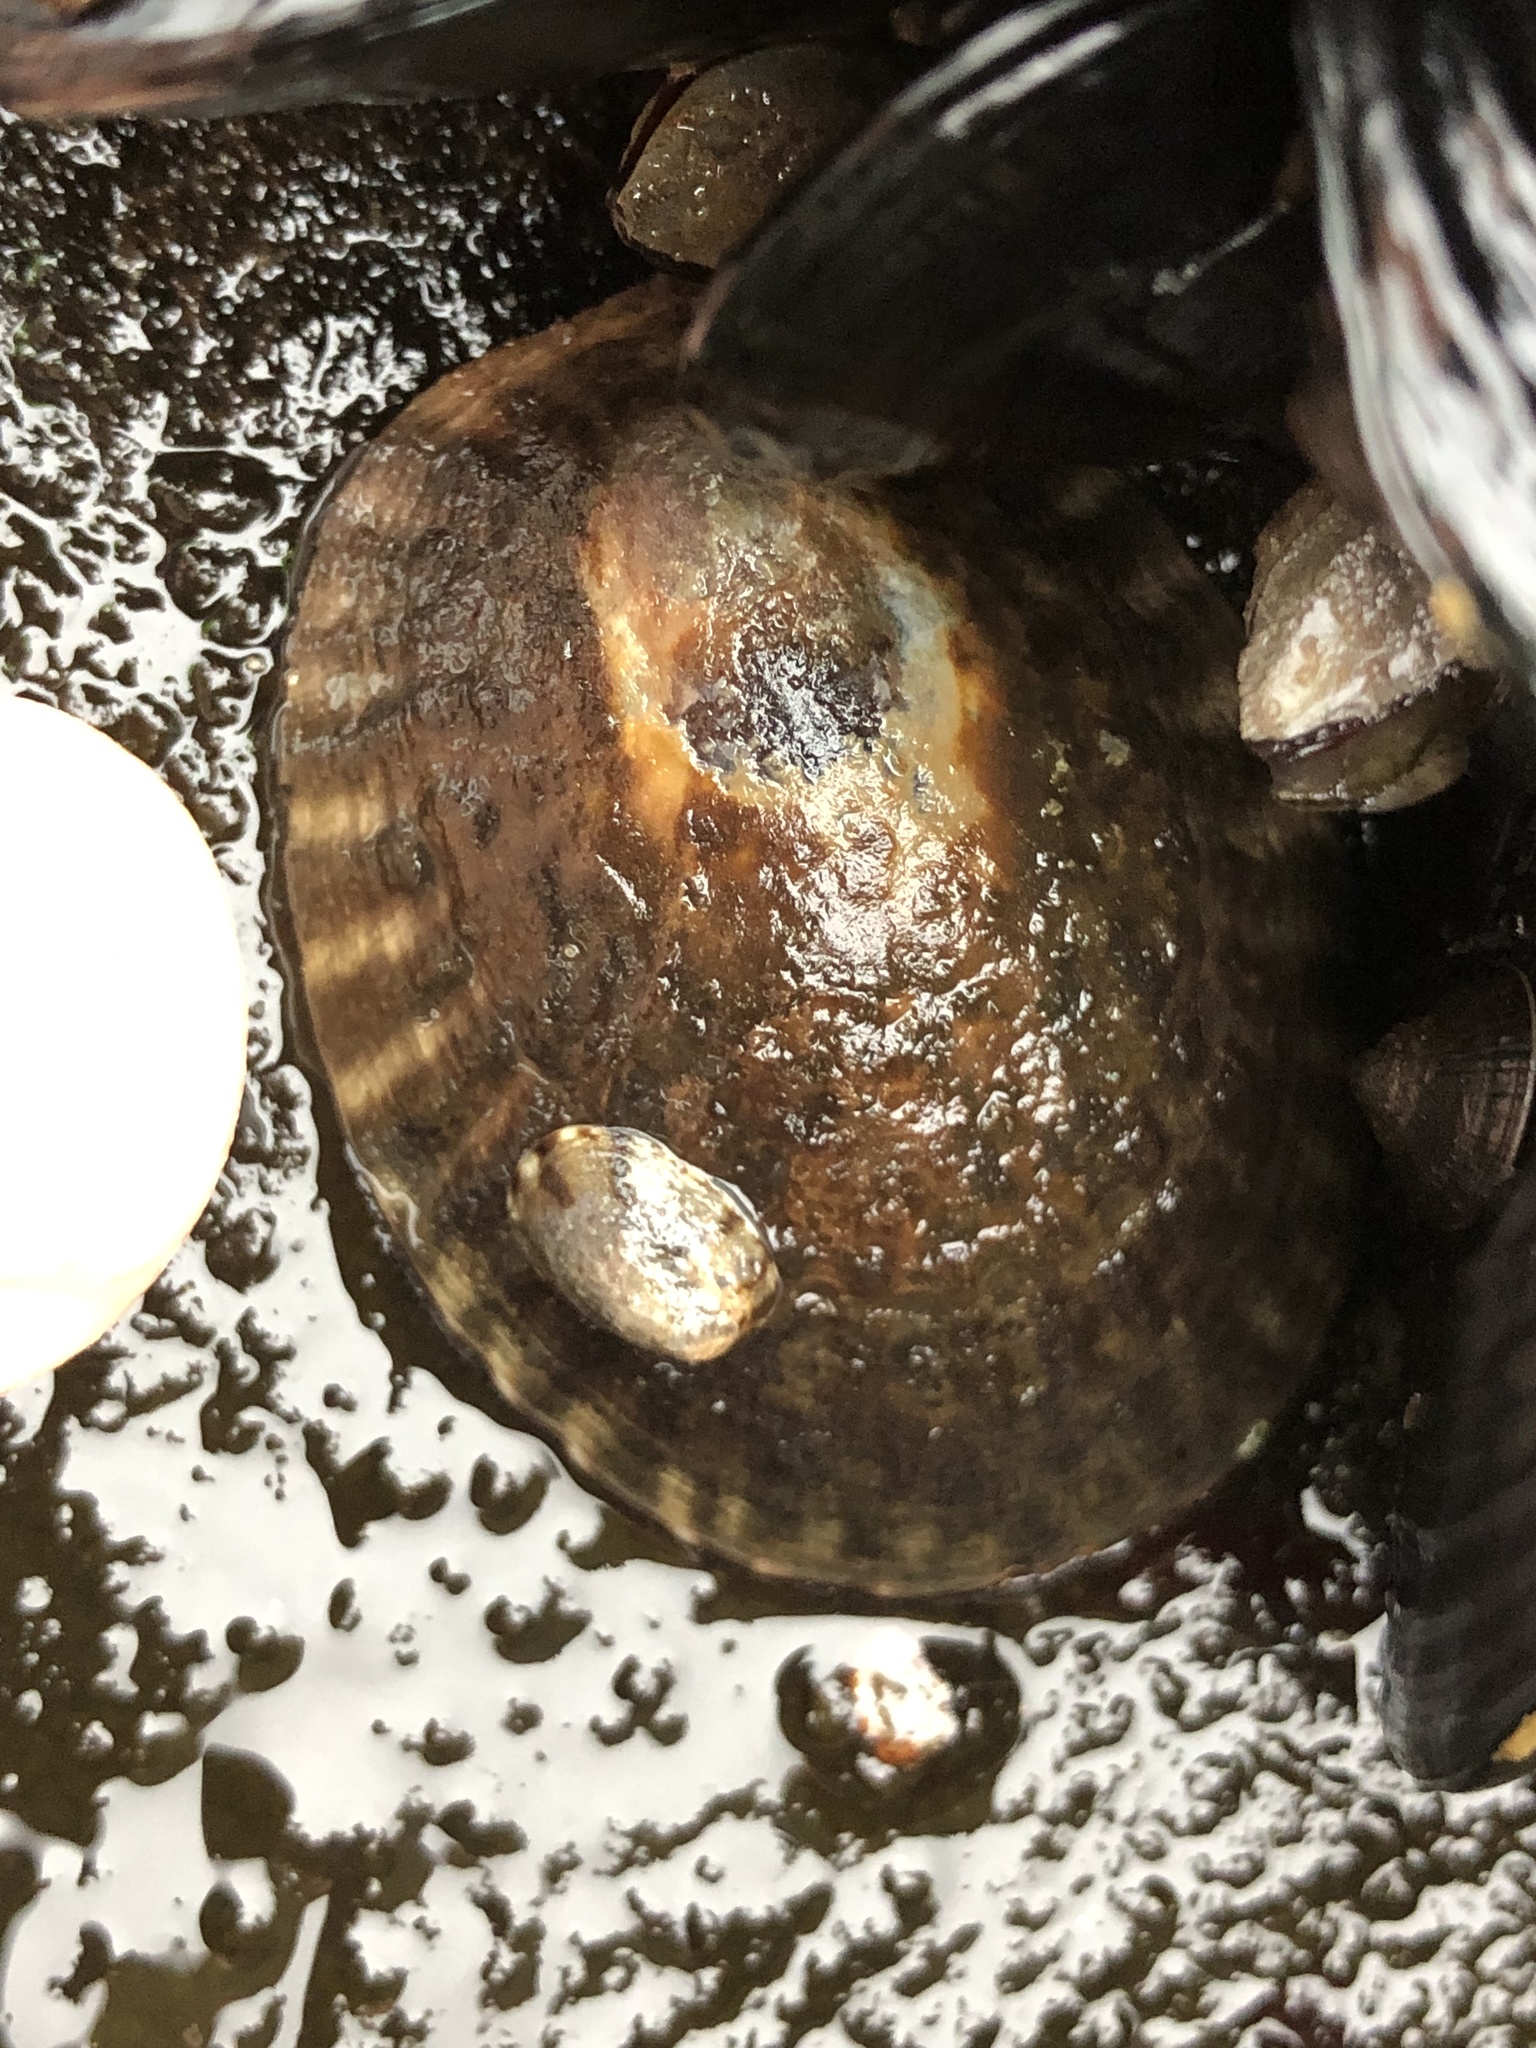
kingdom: Animalia
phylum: Mollusca
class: Gastropoda
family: Lottiidae
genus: Lottia
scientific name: Lottia gigantea
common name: Owl limpet
